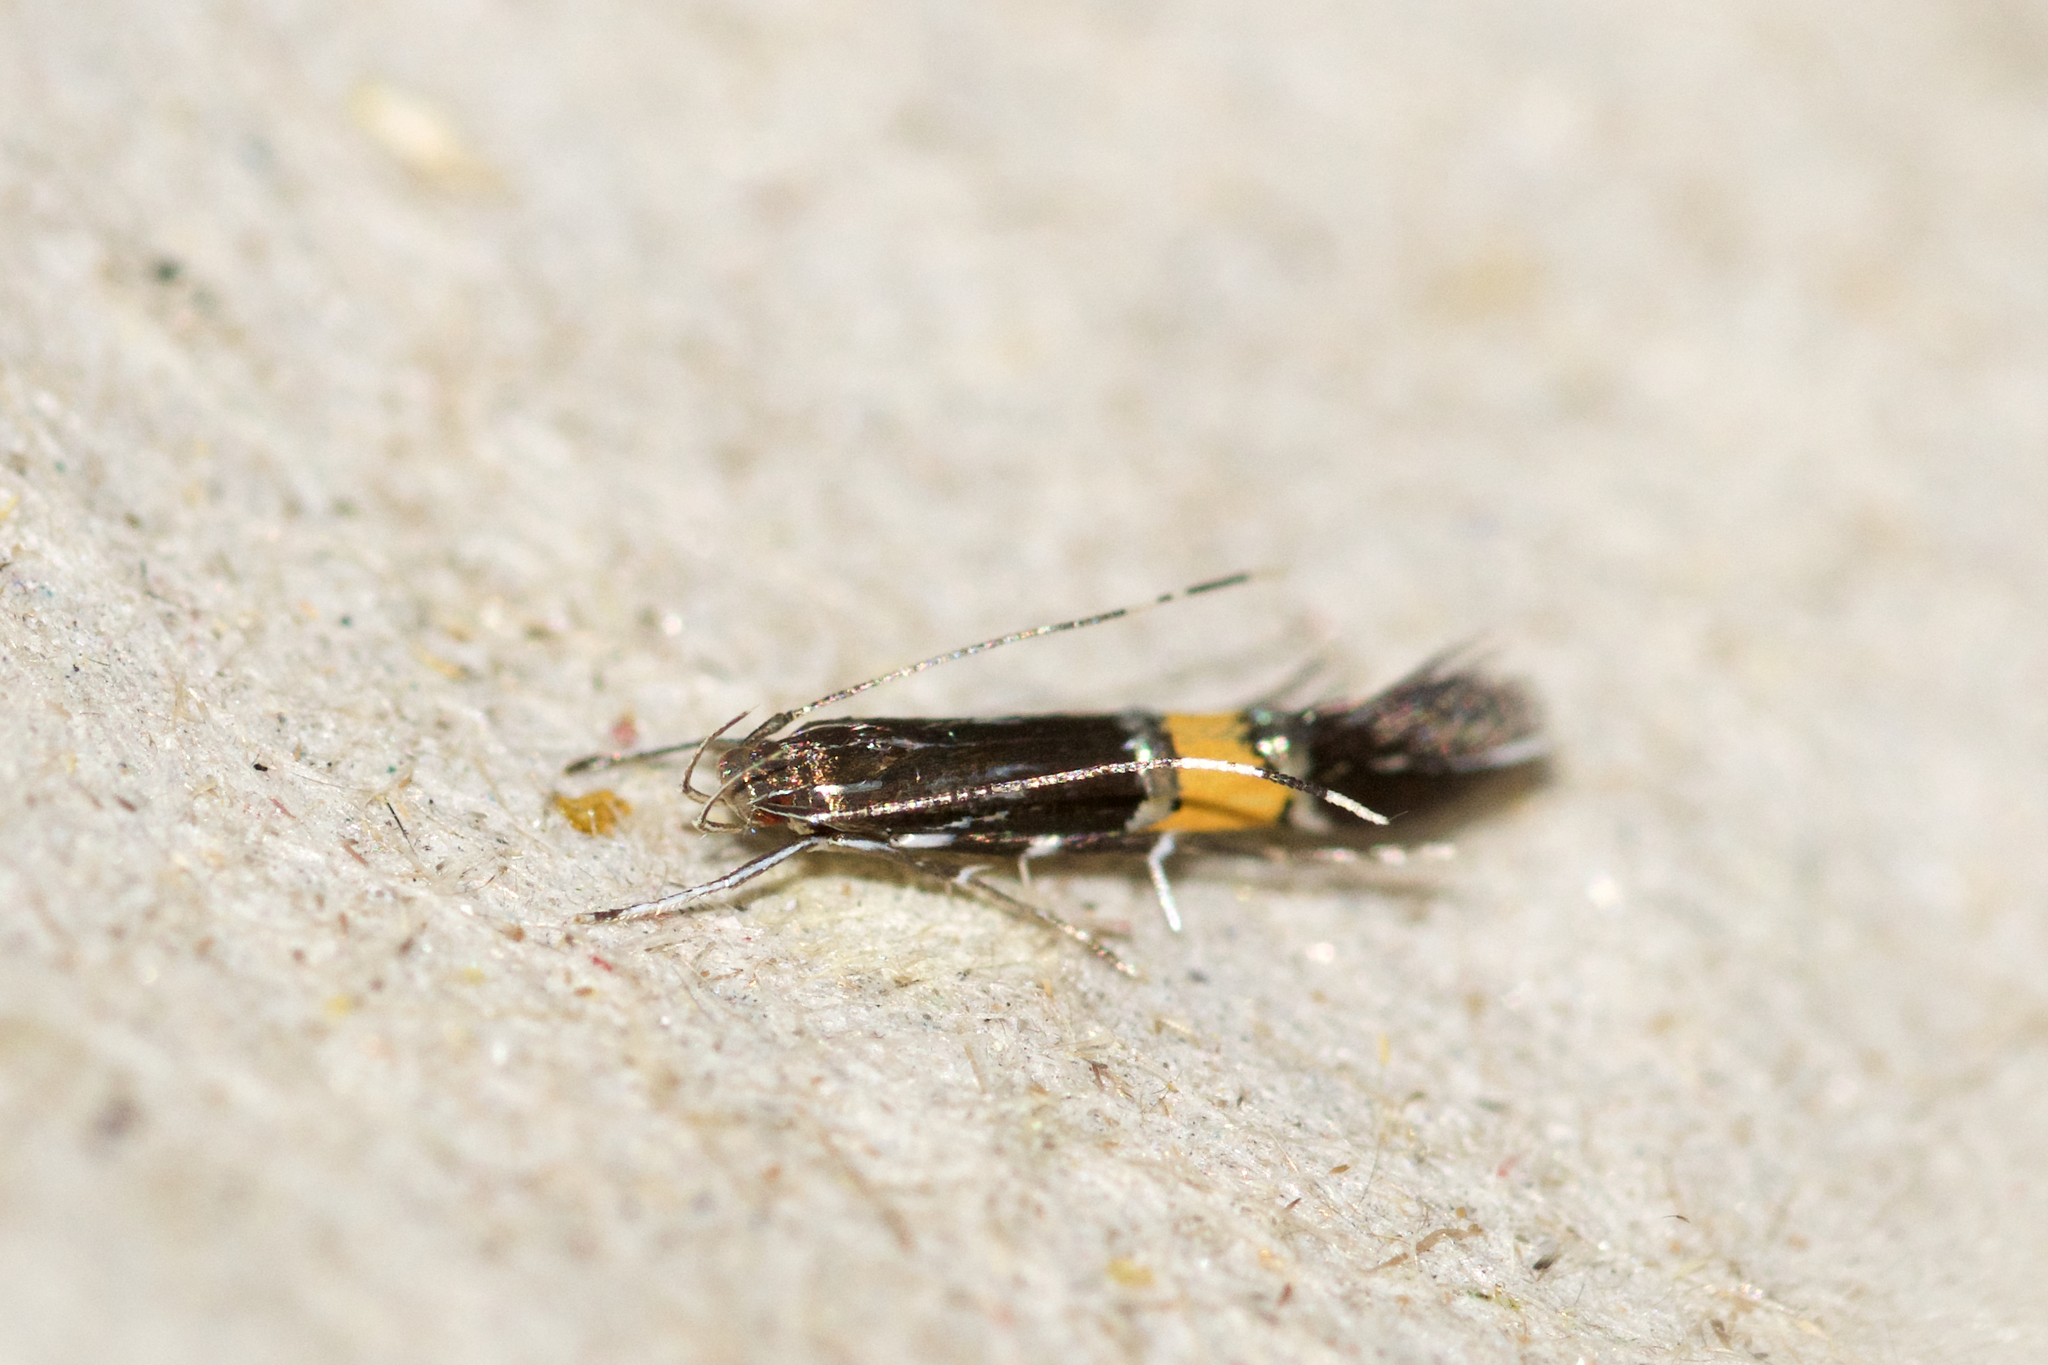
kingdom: Animalia
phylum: Arthropoda
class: Insecta
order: Lepidoptera
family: Cosmopterigidae
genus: Cosmopterix
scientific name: Cosmopterix clemensella
